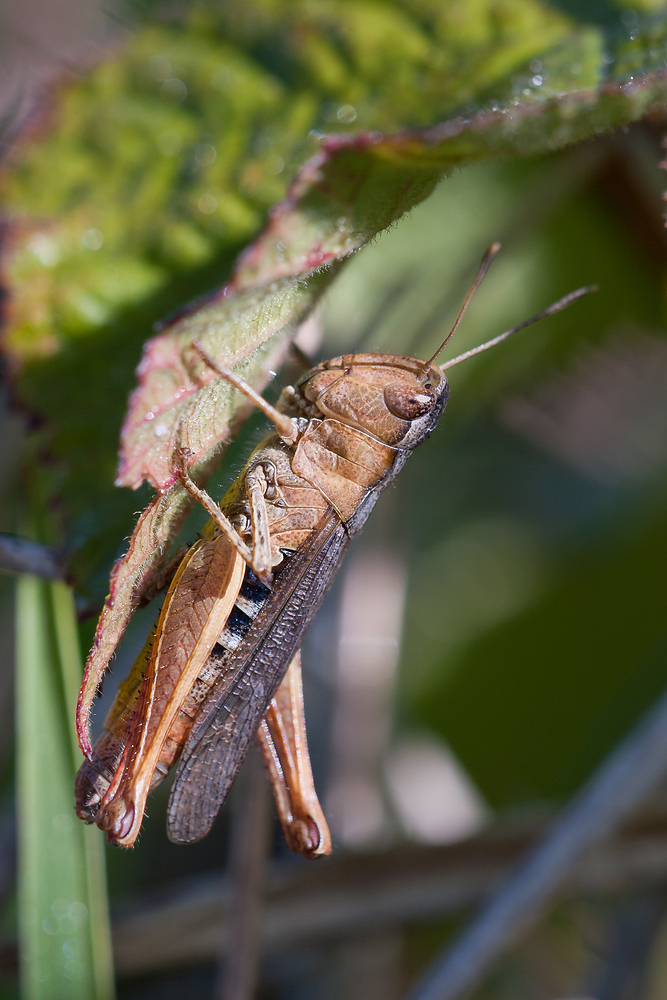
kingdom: Animalia
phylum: Arthropoda
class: Insecta
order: Orthoptera
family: Acrididae
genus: Gomphocerippus
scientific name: Gomphocerippus rufus
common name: Rufous grasshopper
